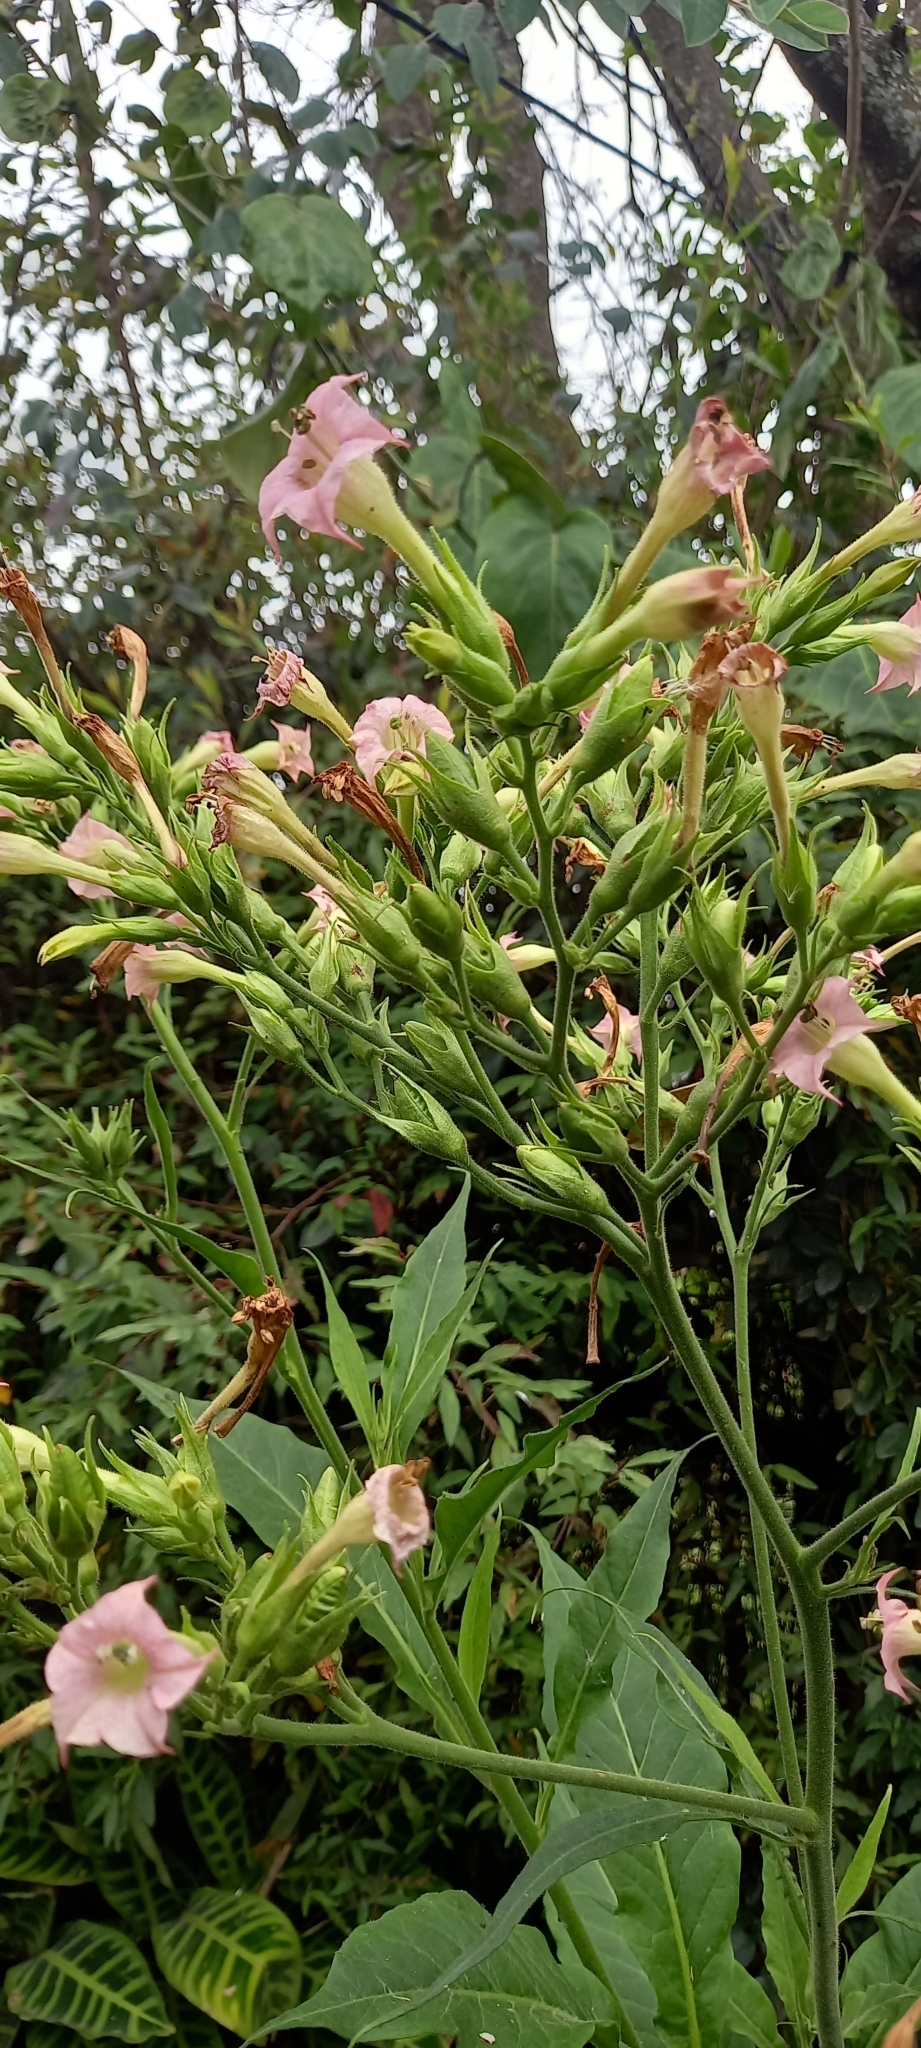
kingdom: Plantae
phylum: Tracheophyta
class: Magnoliopsida
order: Solanales
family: Solanaceae
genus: Nicotiana
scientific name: Nicotiana tabacum
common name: Tobacco
